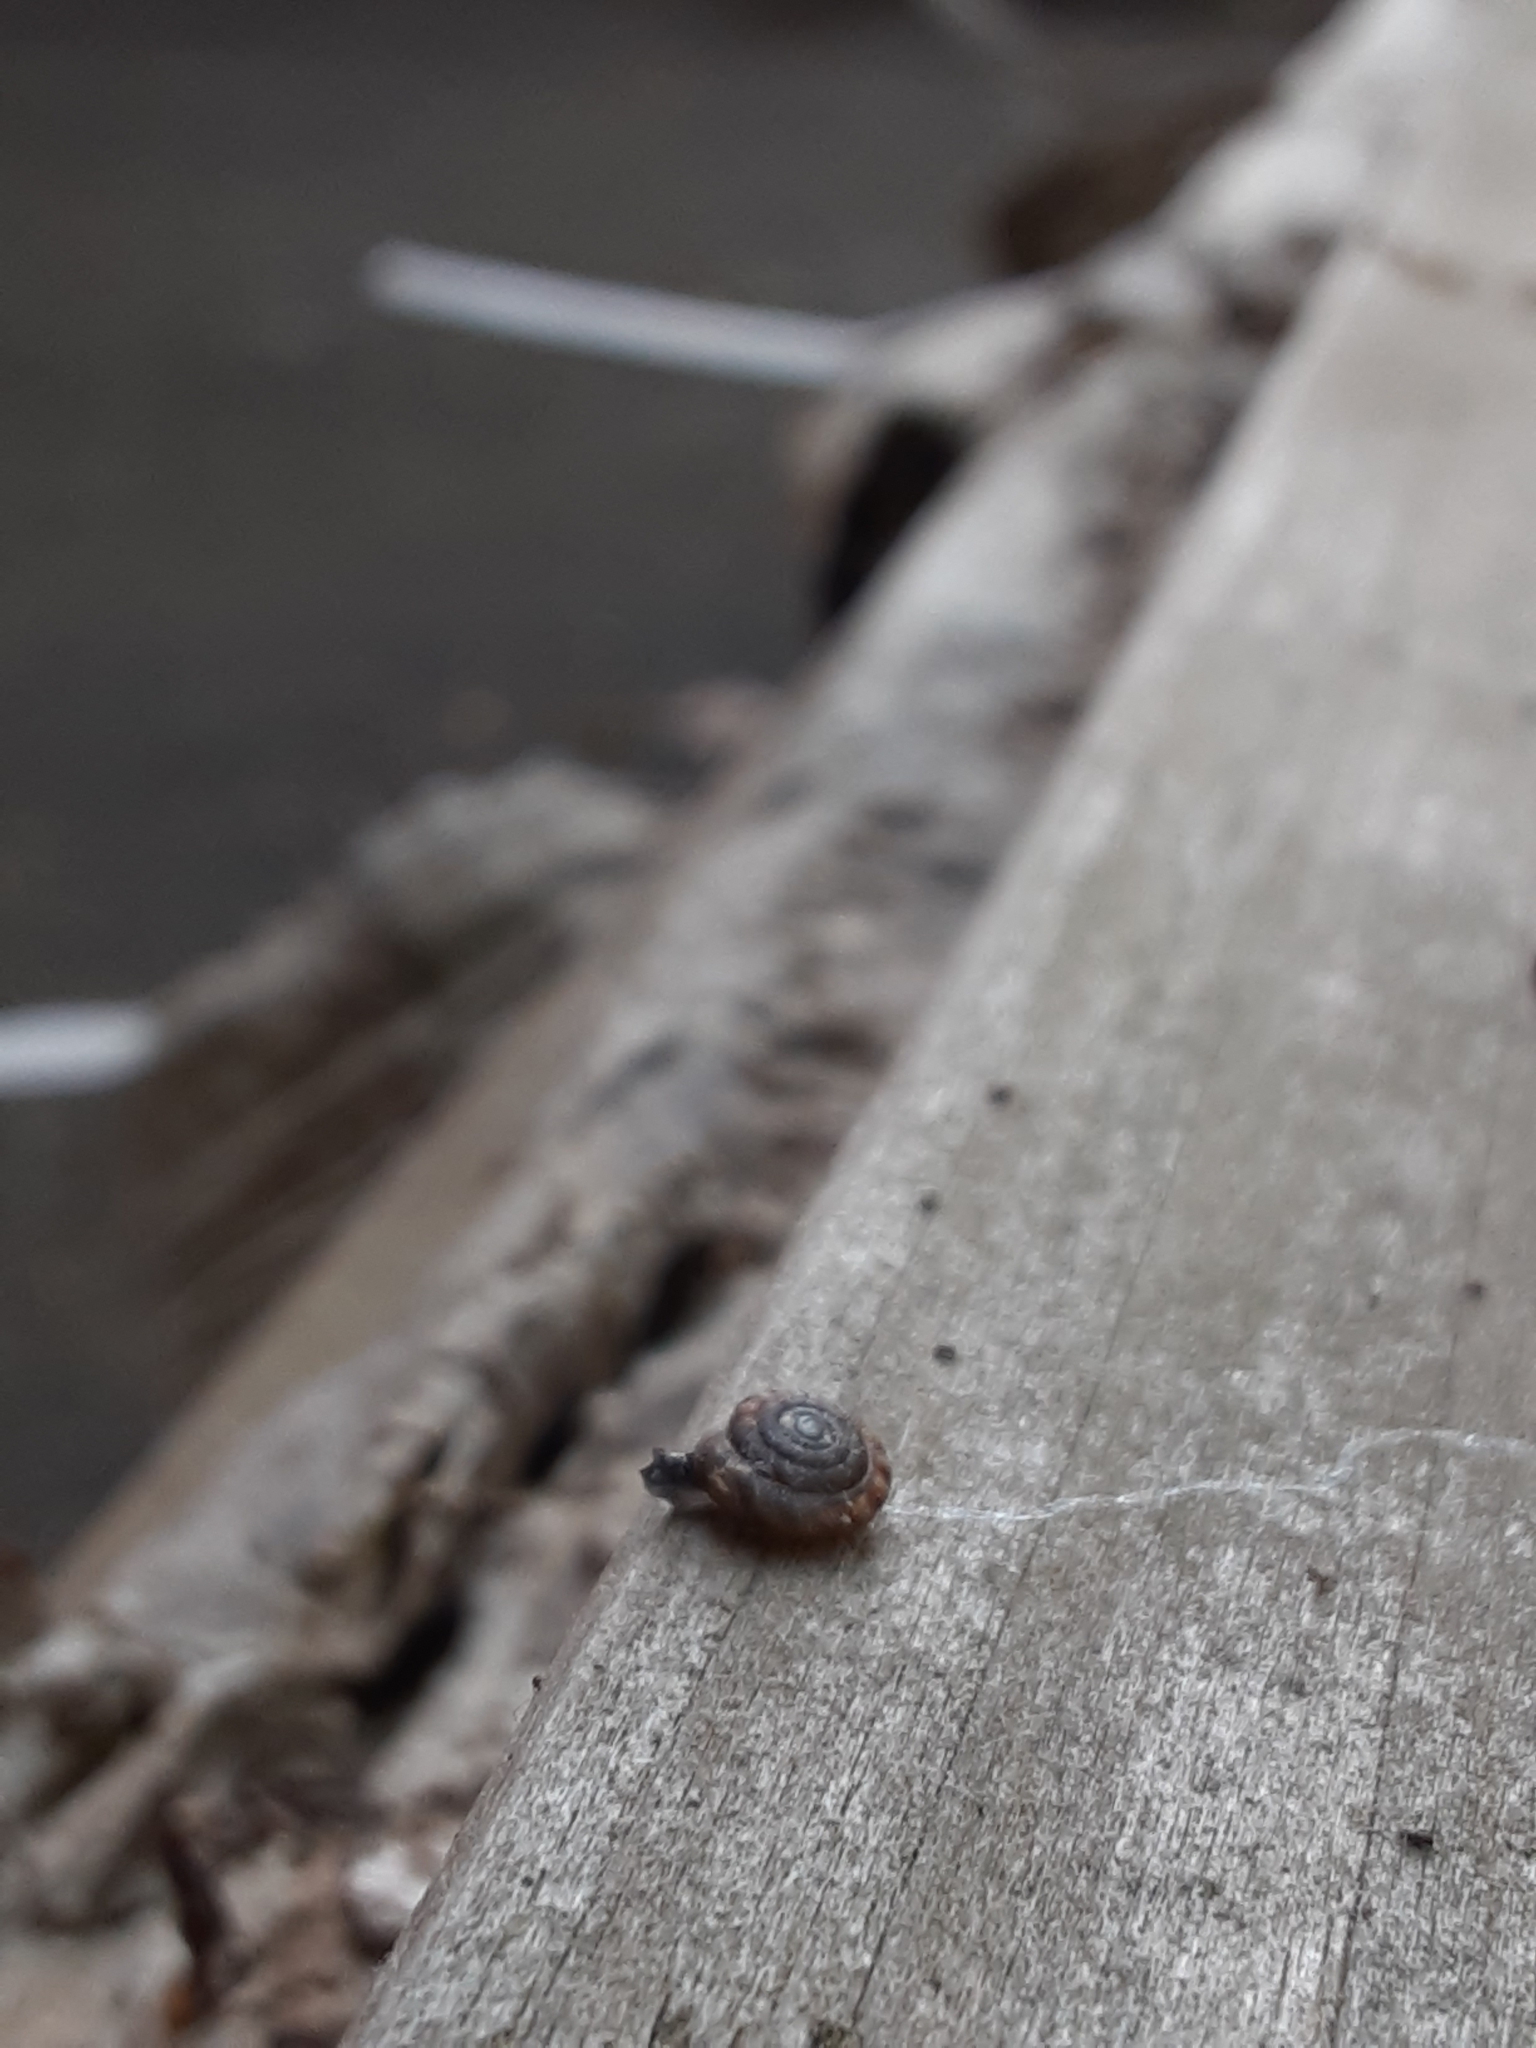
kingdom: Animalia
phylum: Mollusca
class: Gastropoda
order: Stylommatophora
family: Discidae
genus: Discus
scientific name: Discus rotundatus
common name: Rounded snail
